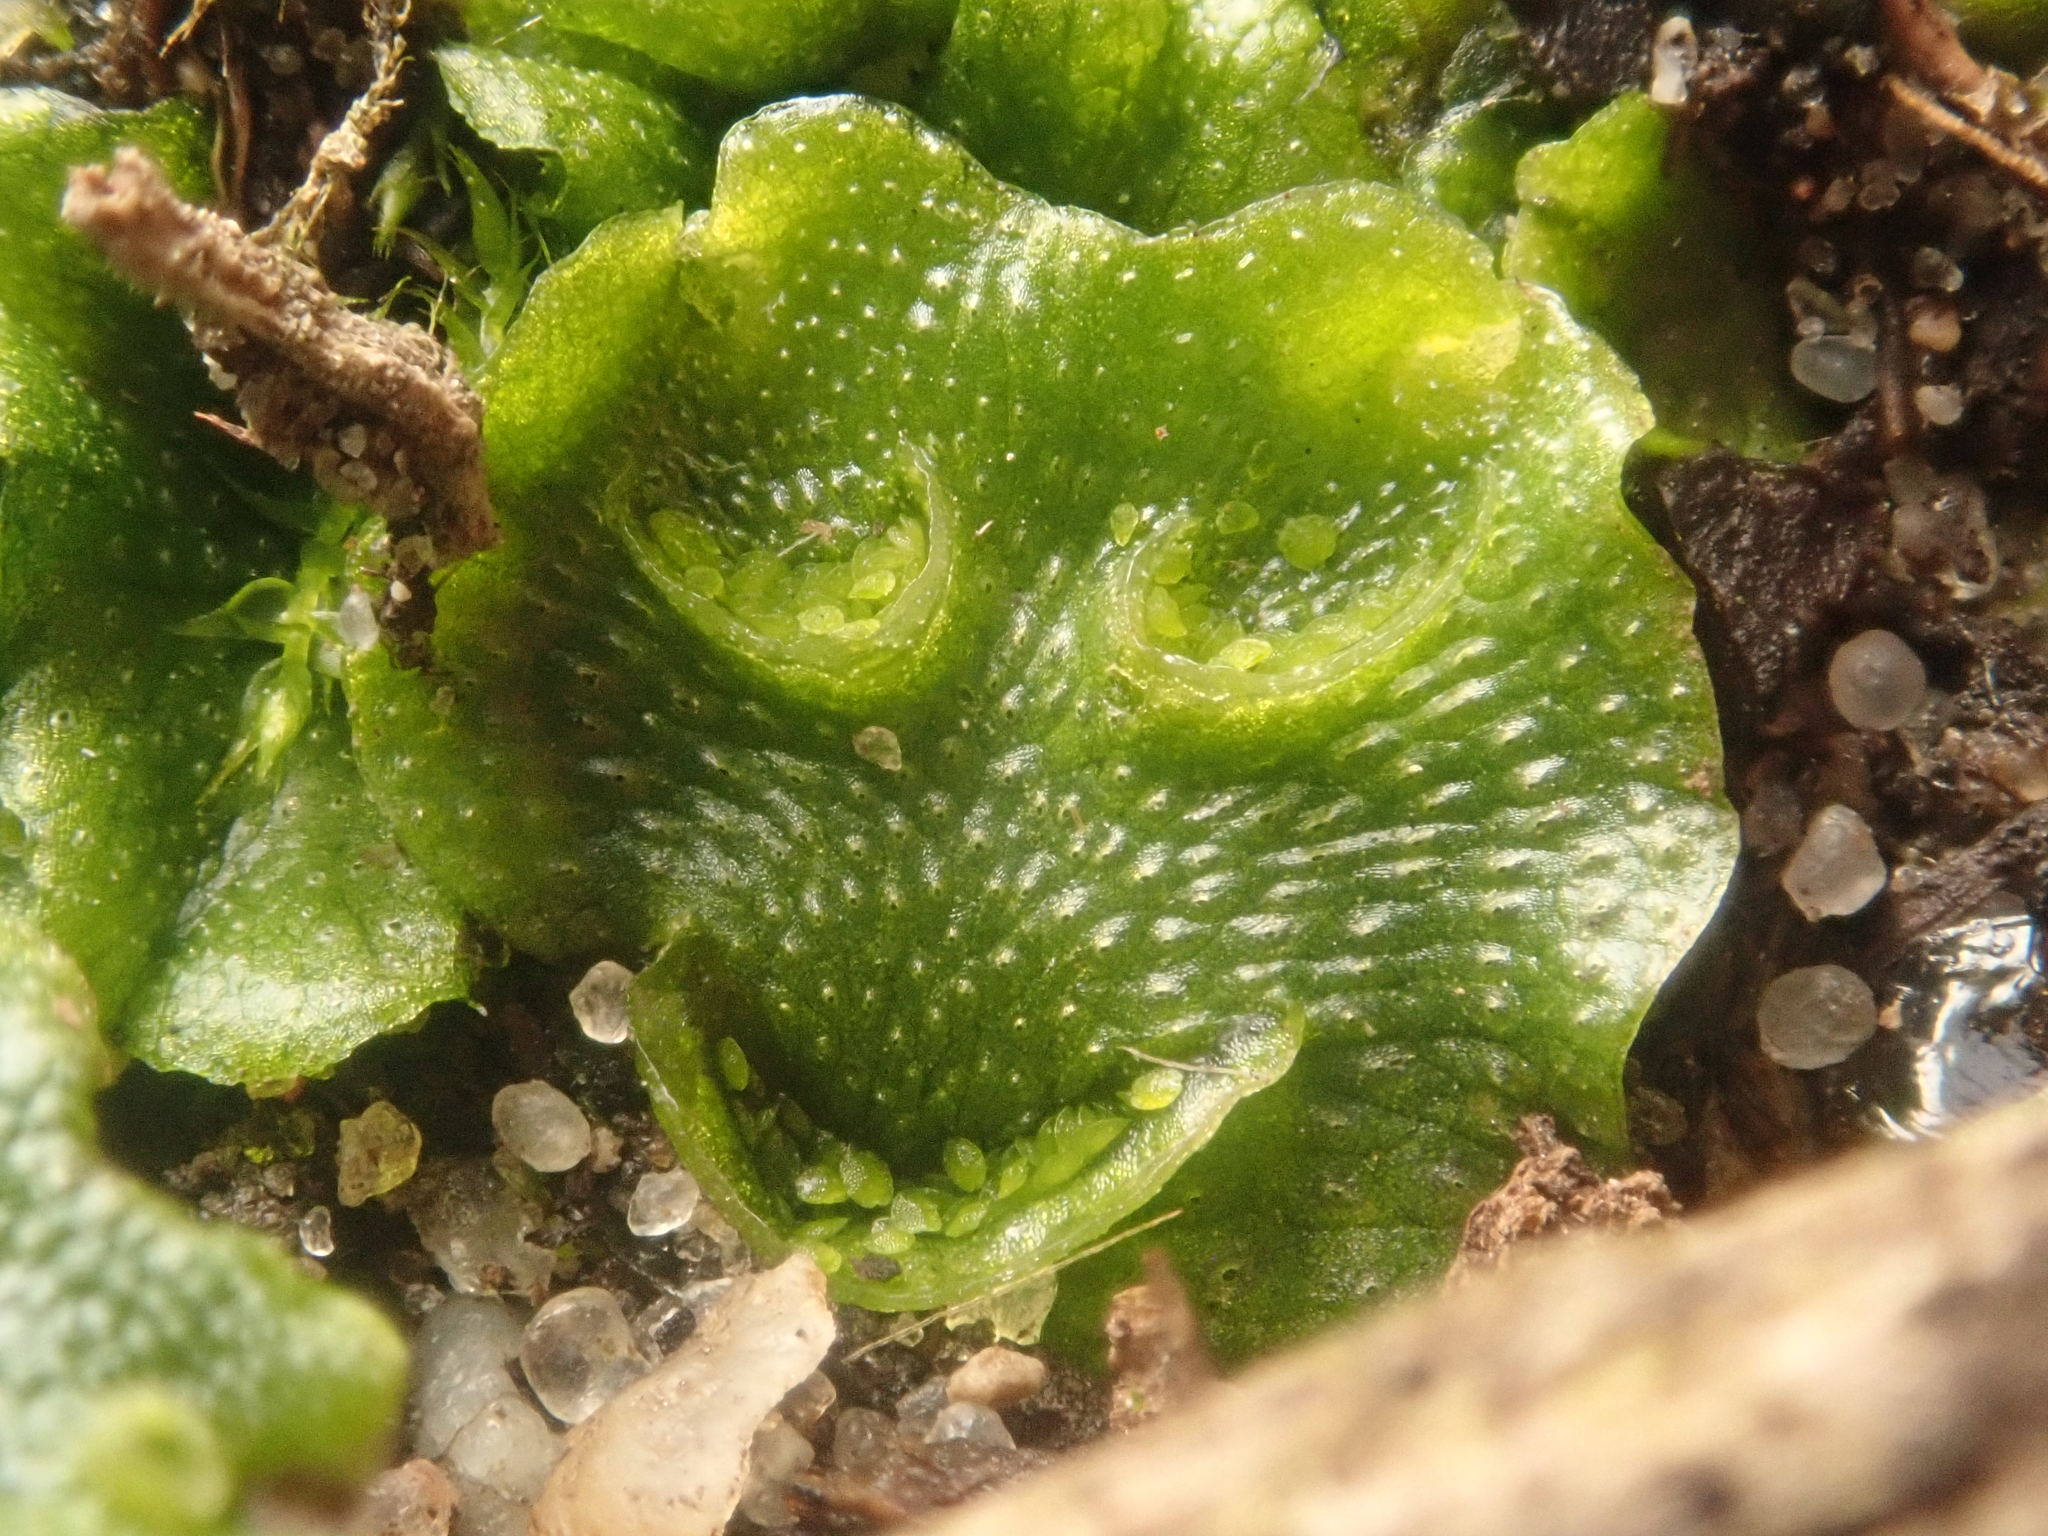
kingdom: Plantae
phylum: Marchantiophyta
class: Marchantiopsida
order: Lunulariales
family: Lunulariaceae
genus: Lunularia
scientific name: Lunularia cruciata
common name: Crescent-cup liverwort
